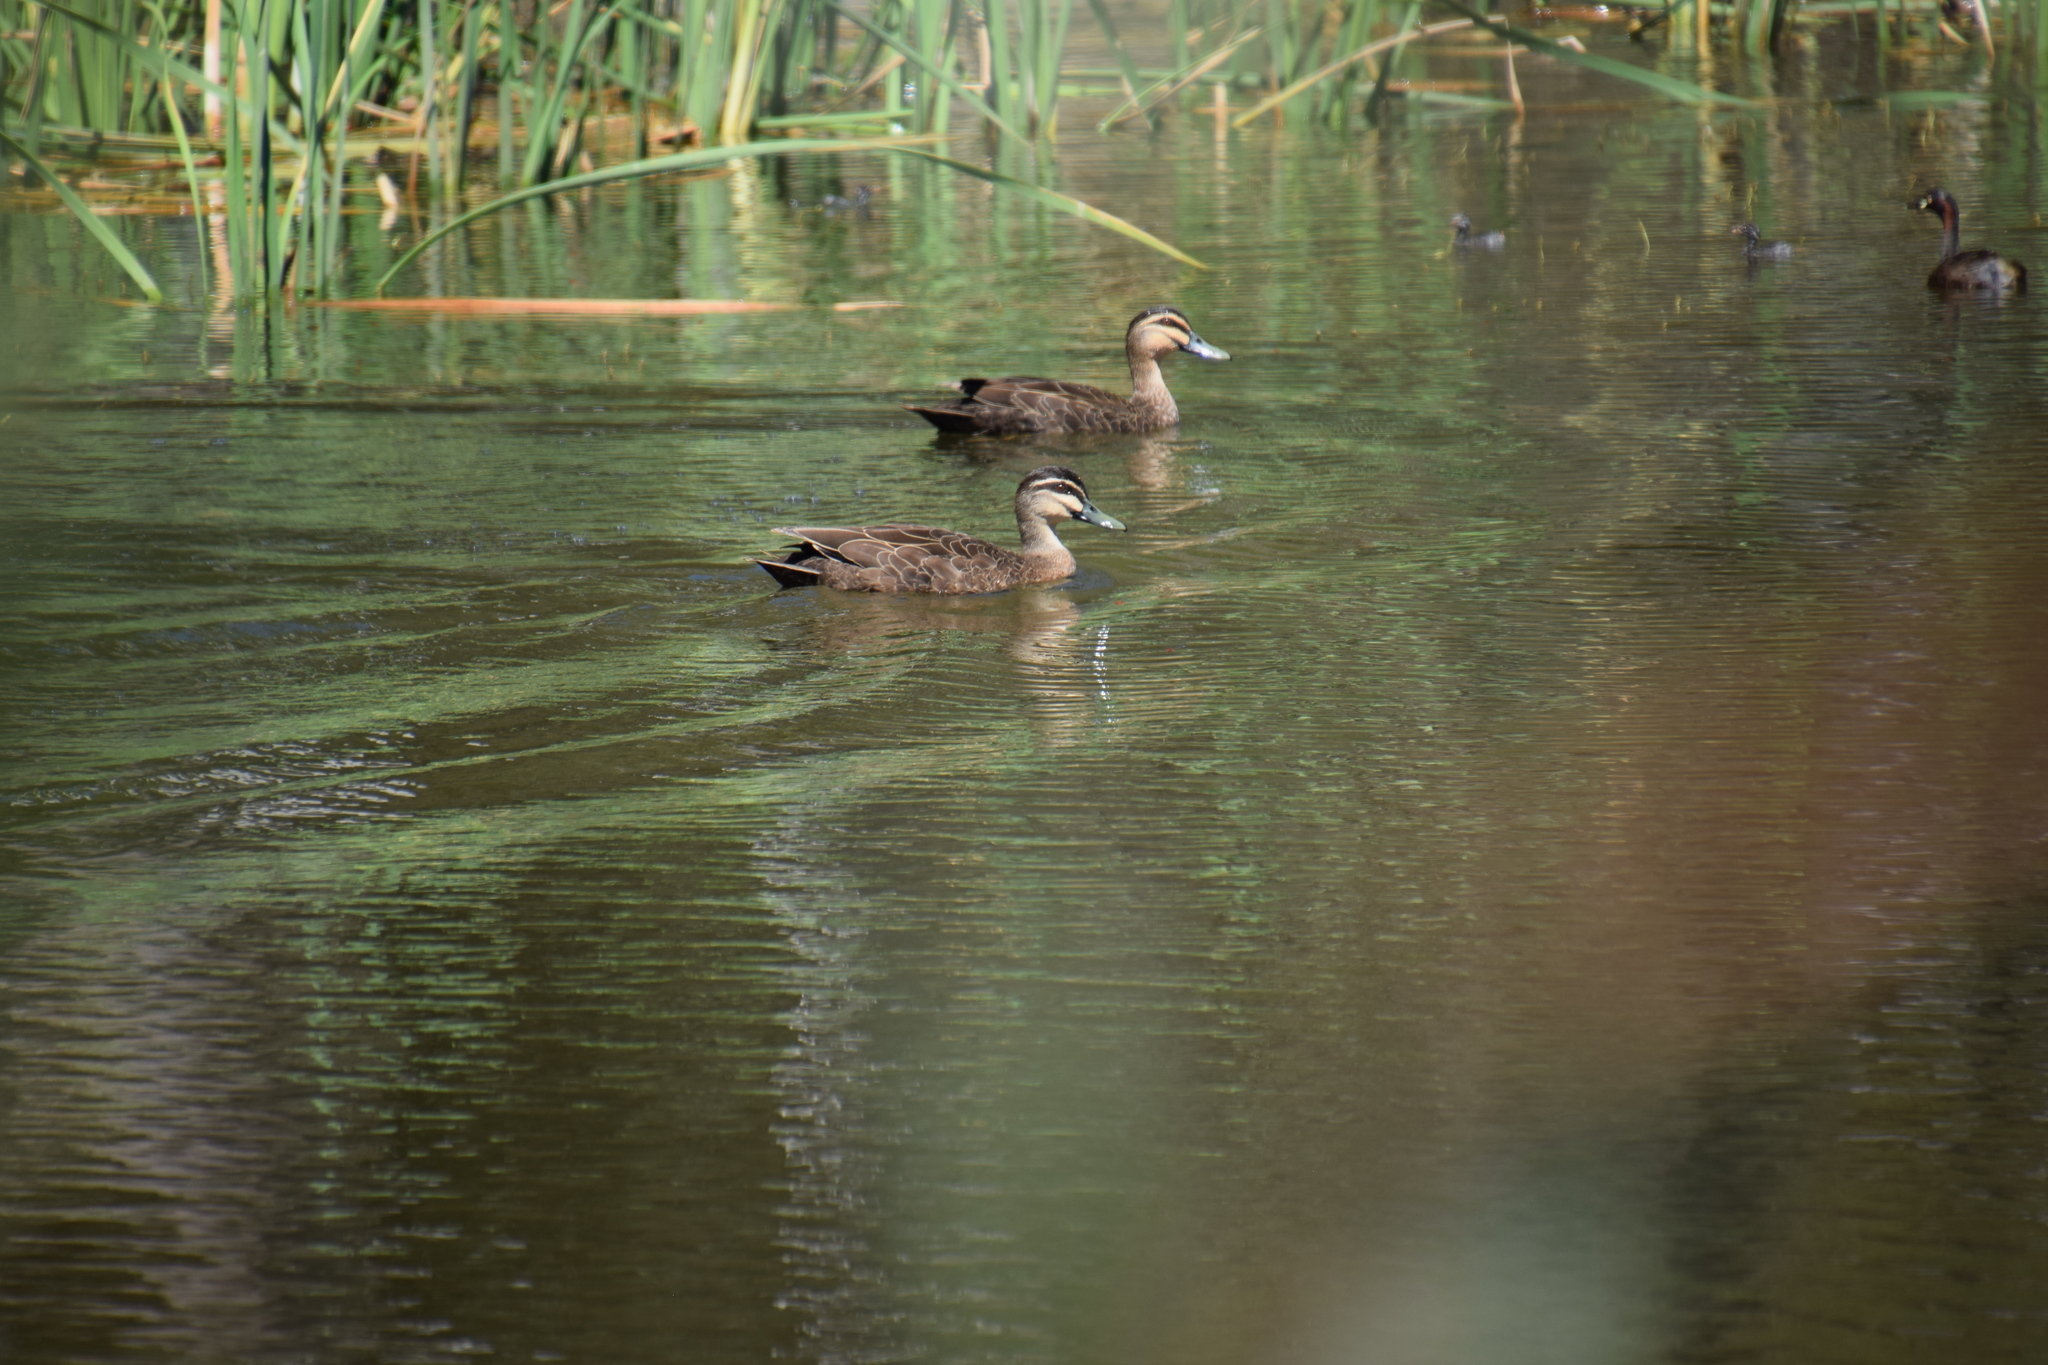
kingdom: Animalia
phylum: Chordata
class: Aves
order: Podicipediformes
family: Podicipedidae
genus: Tachybaptus
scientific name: Tachybaptus novaehollandiae
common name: Australasian grebe
